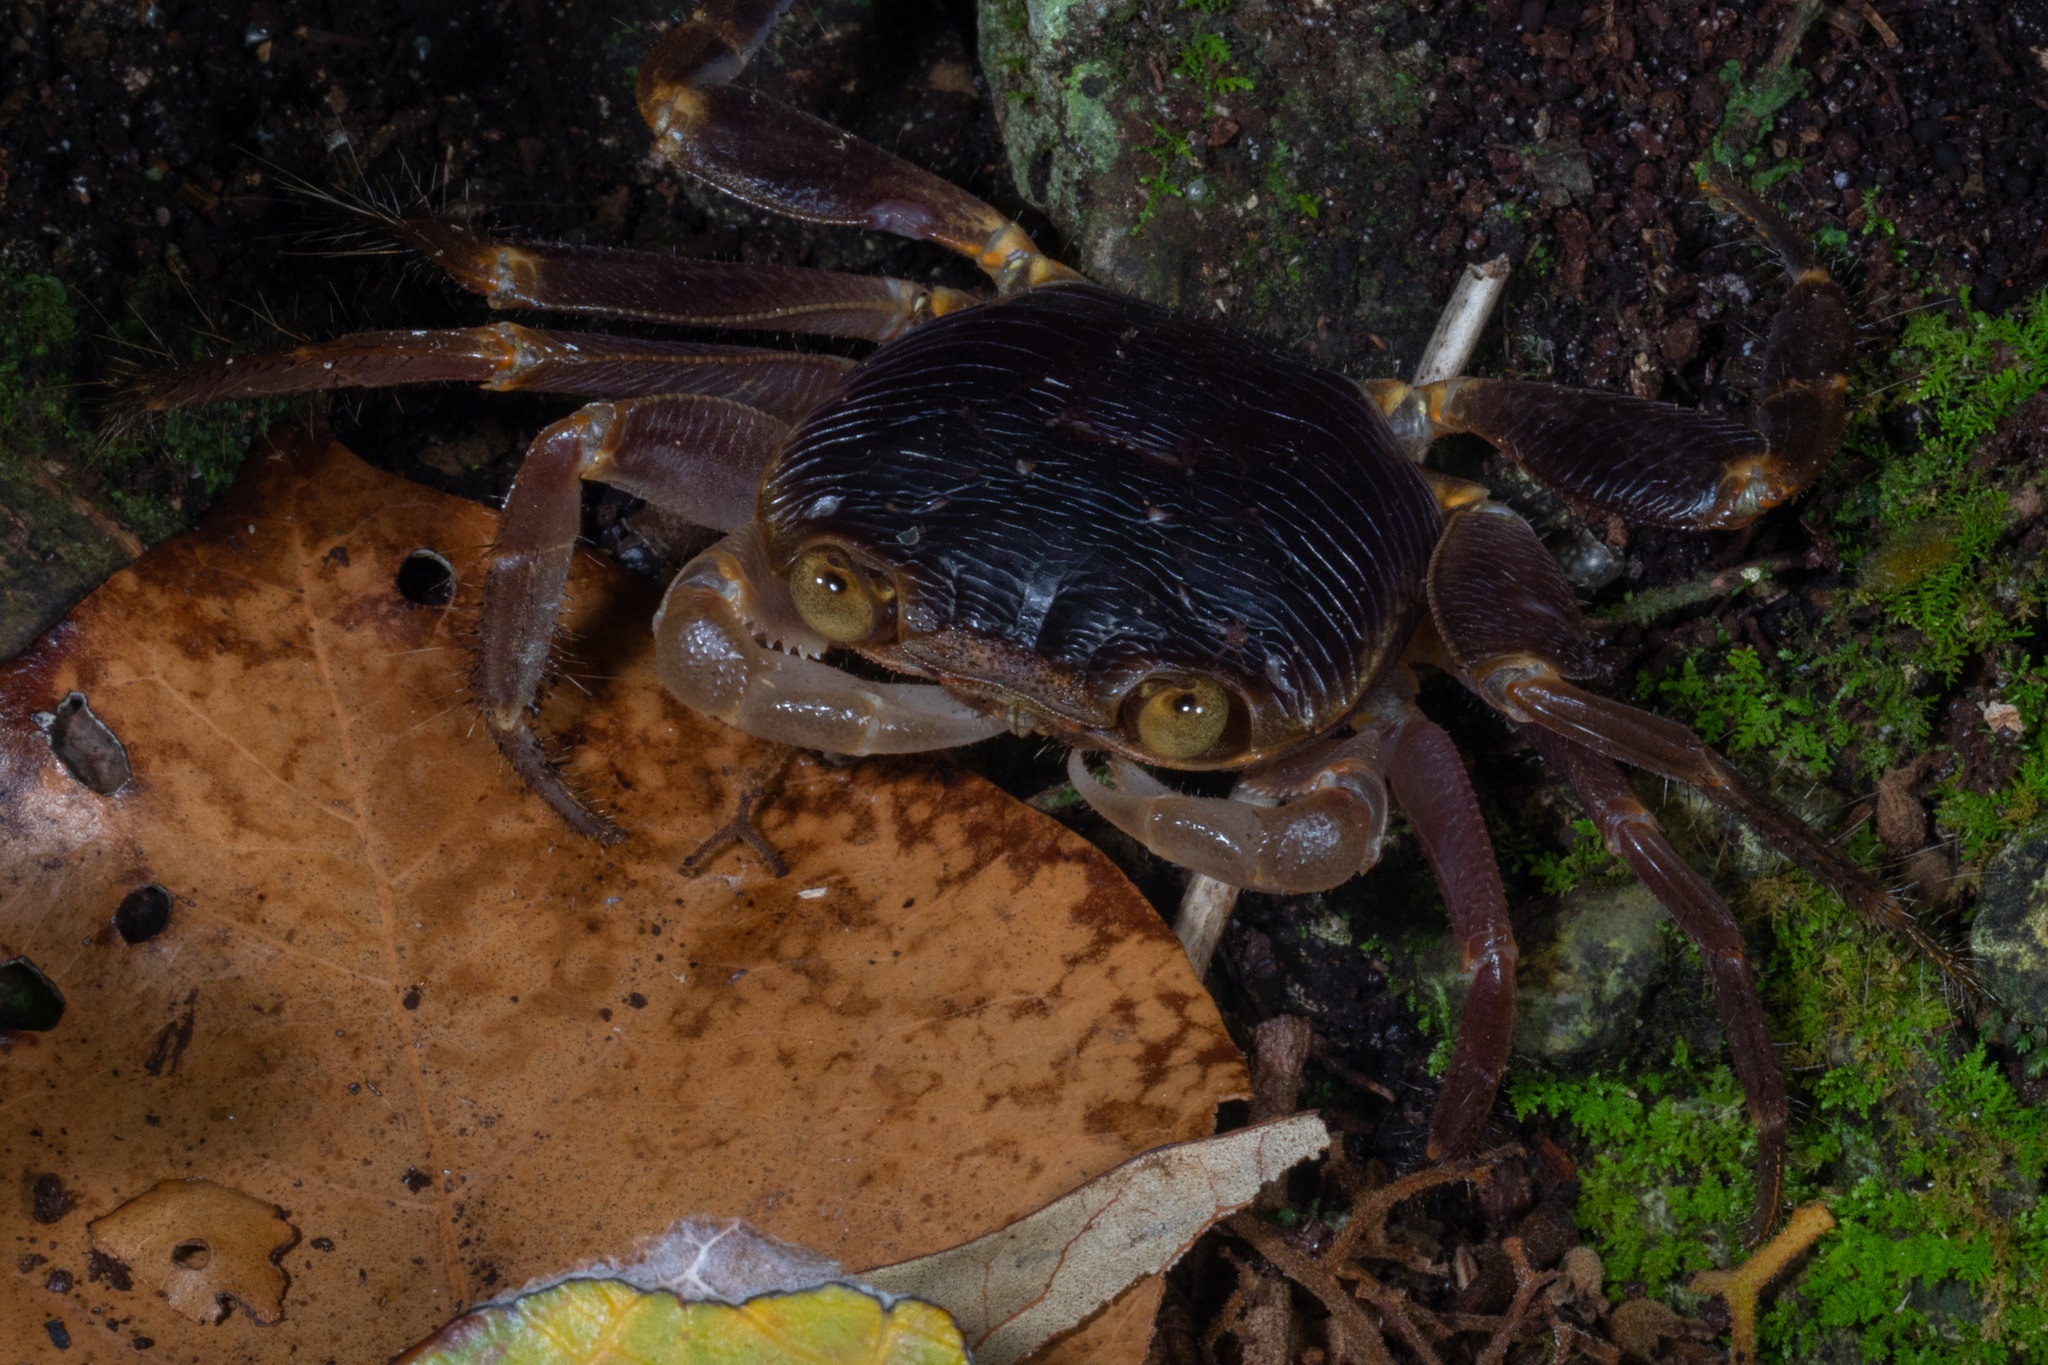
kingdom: Animalia
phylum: Arthropoda
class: Malacostraca
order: Decapoda
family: Grapsidae
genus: Geograpsus
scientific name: Geograpsus grayi
